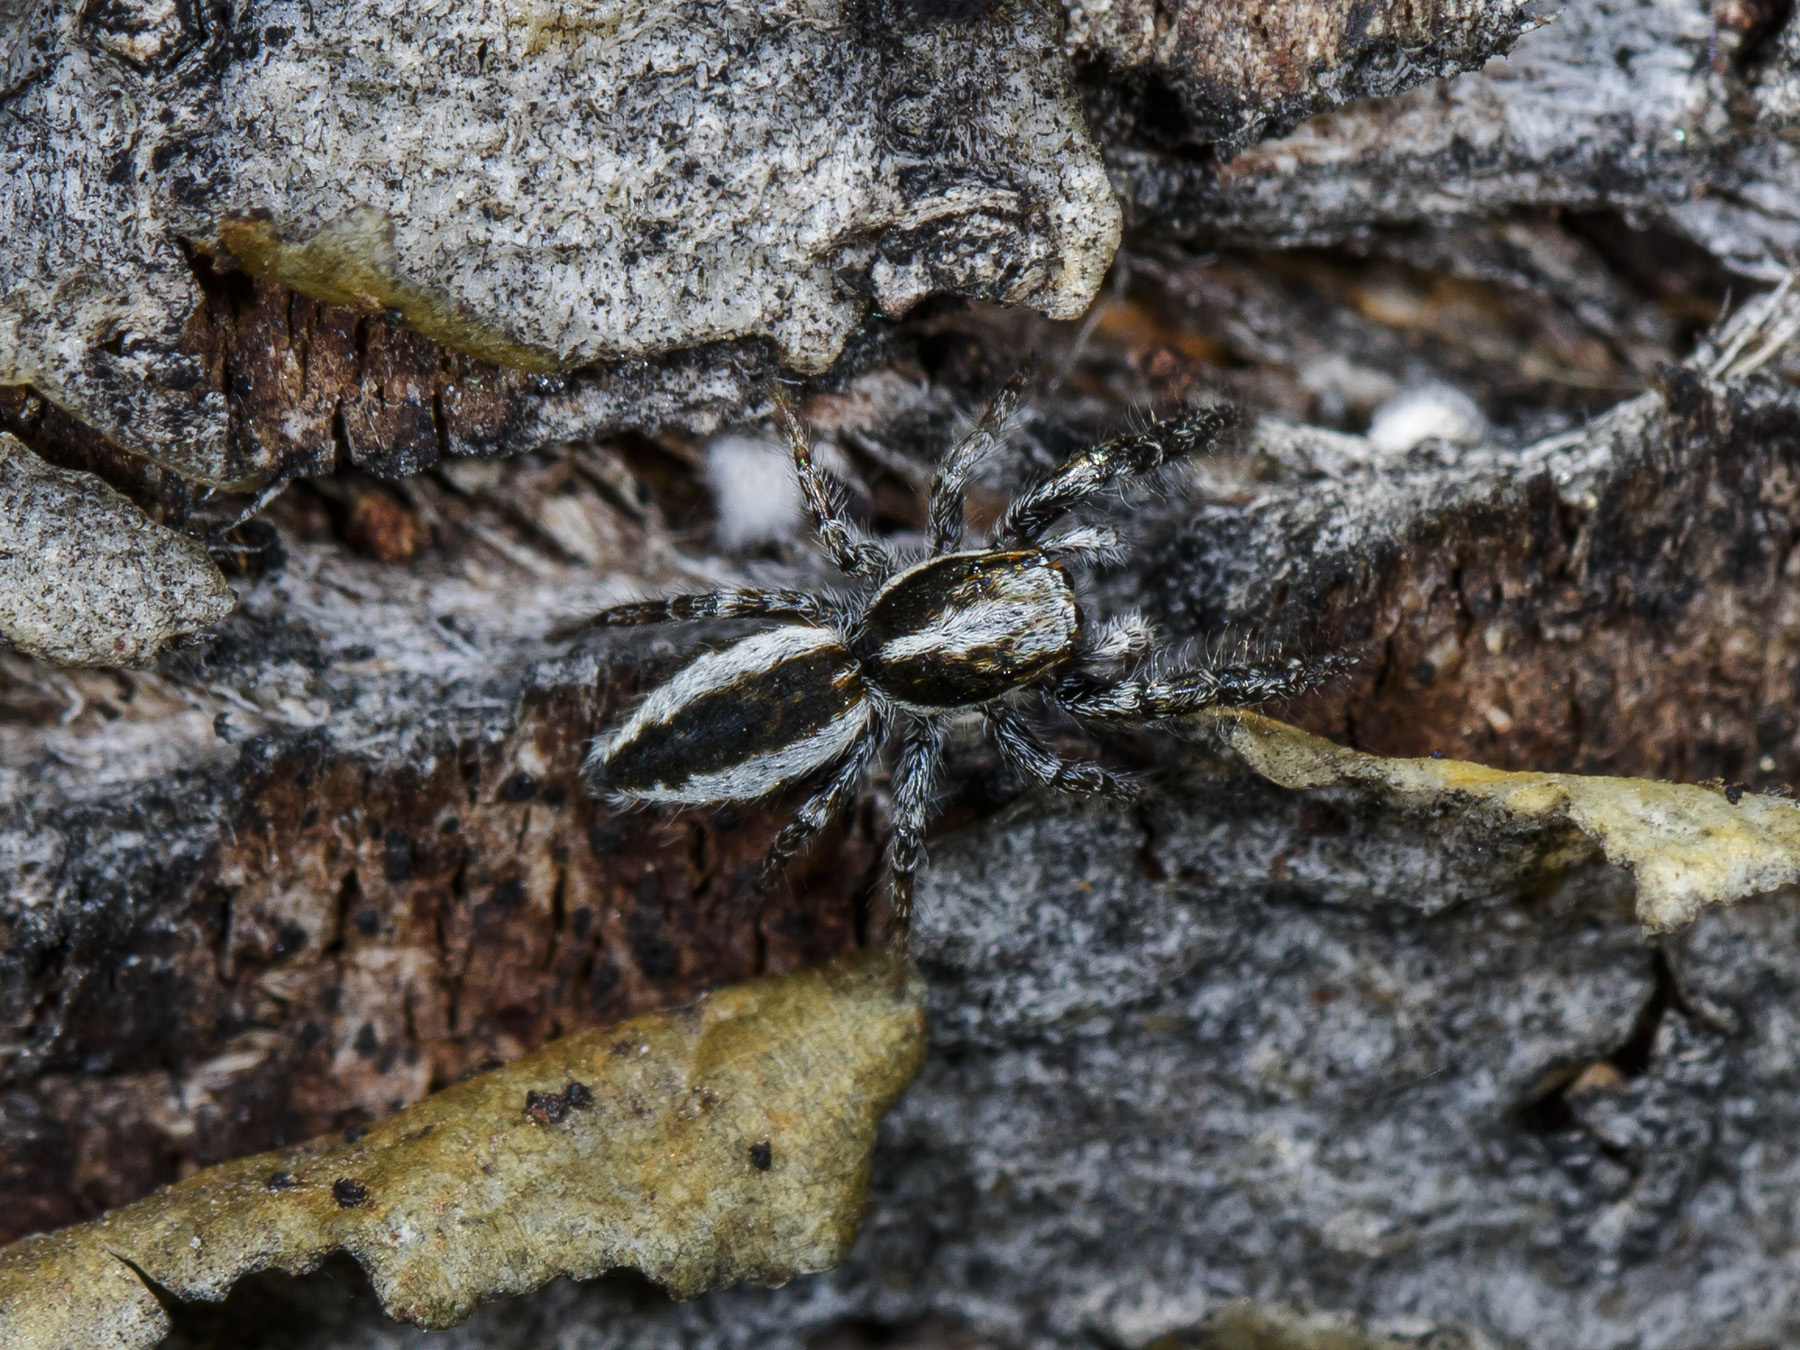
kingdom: Animalia
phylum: Arthropoda
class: Arachnida
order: Araneae
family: Salticidae
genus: Pseudicius
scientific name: Pseudicius encarpatus
